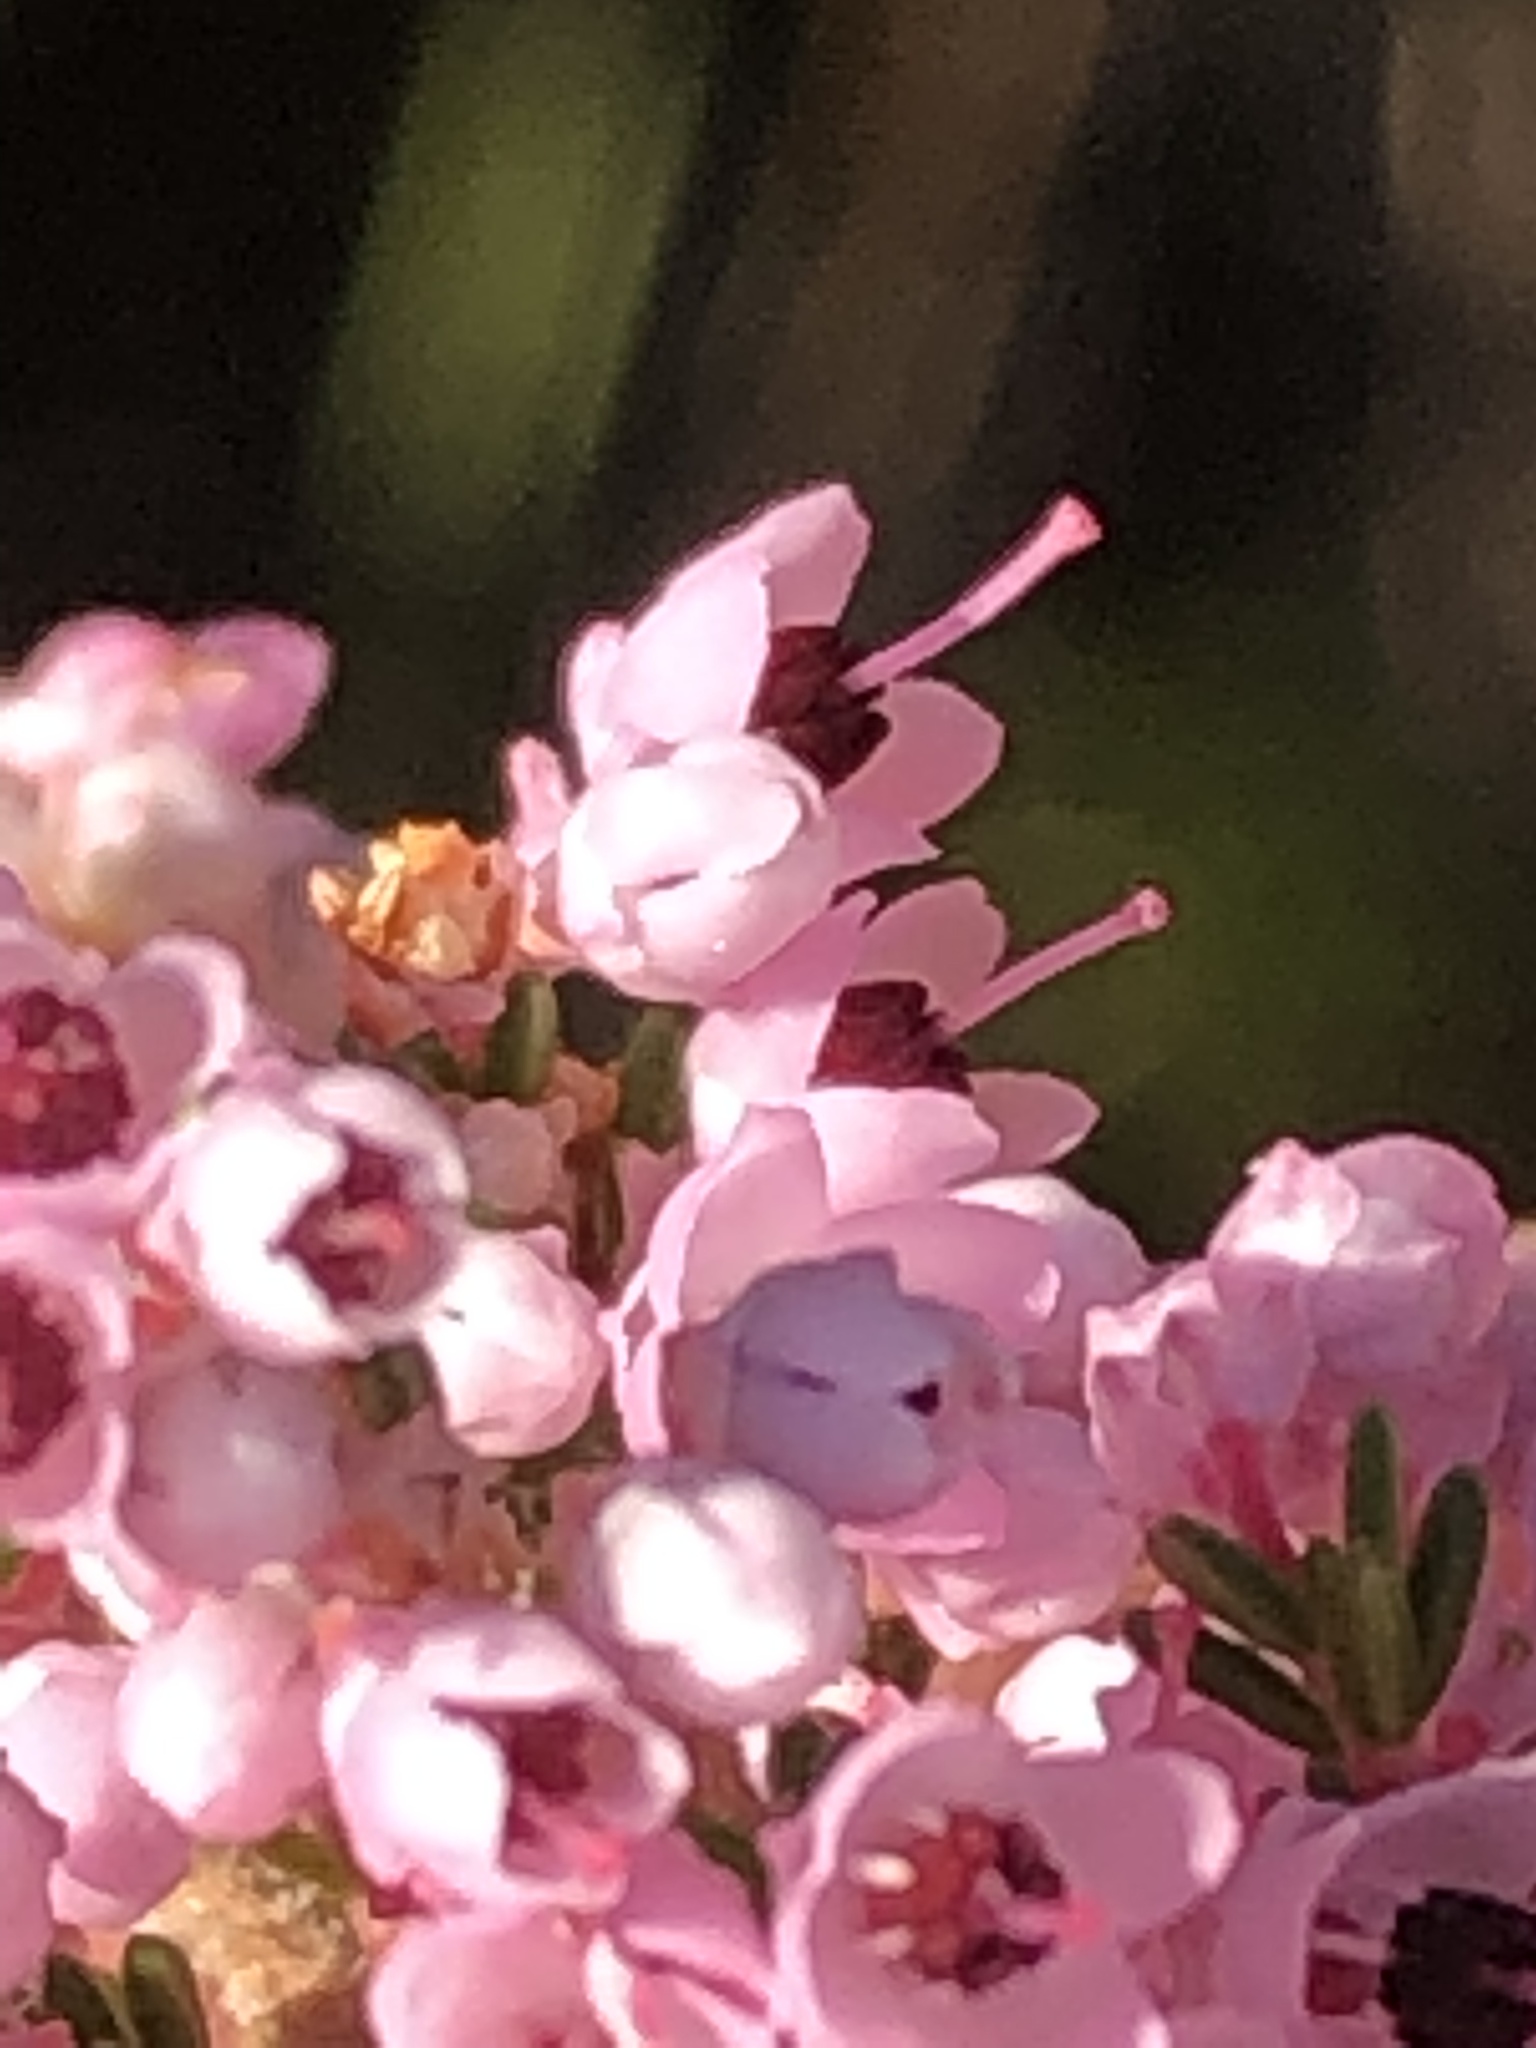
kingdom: Plantae
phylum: Tracheophyta
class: Magnoliopsida
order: Ericales
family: Ericaceae
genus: Erica
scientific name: Erica sparsa
